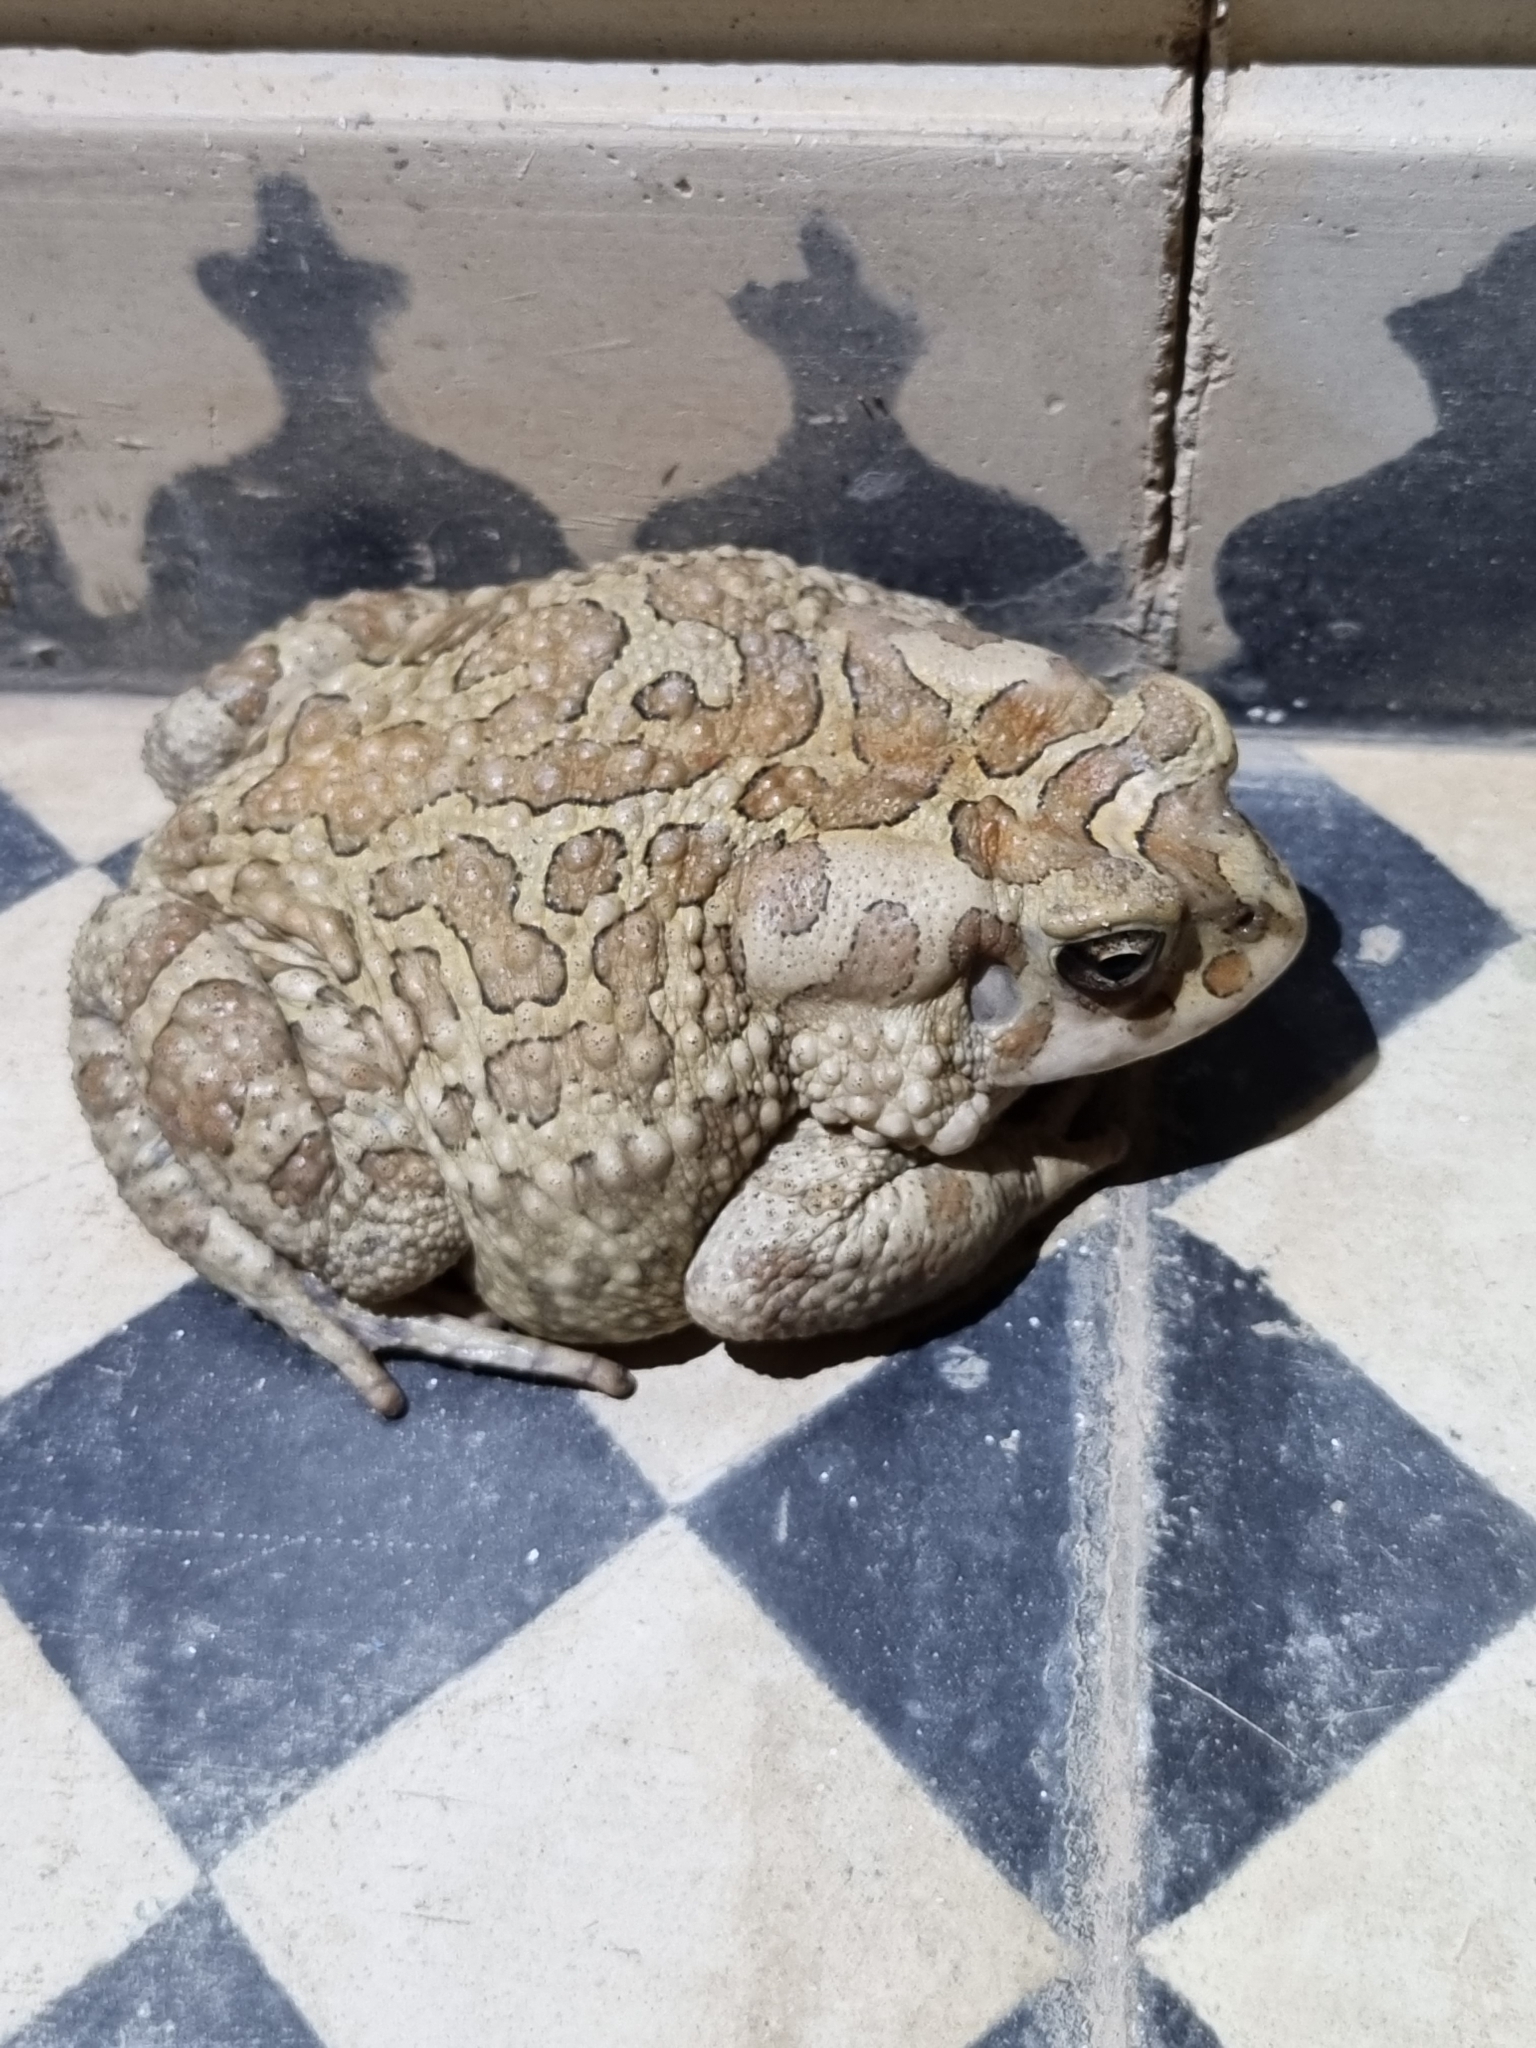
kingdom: Animalia
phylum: Chordata
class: Amphibia
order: Anura
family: Bufonidae
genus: Sclerophrys
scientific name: Sclerophrys mauritanica
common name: Berber toad
